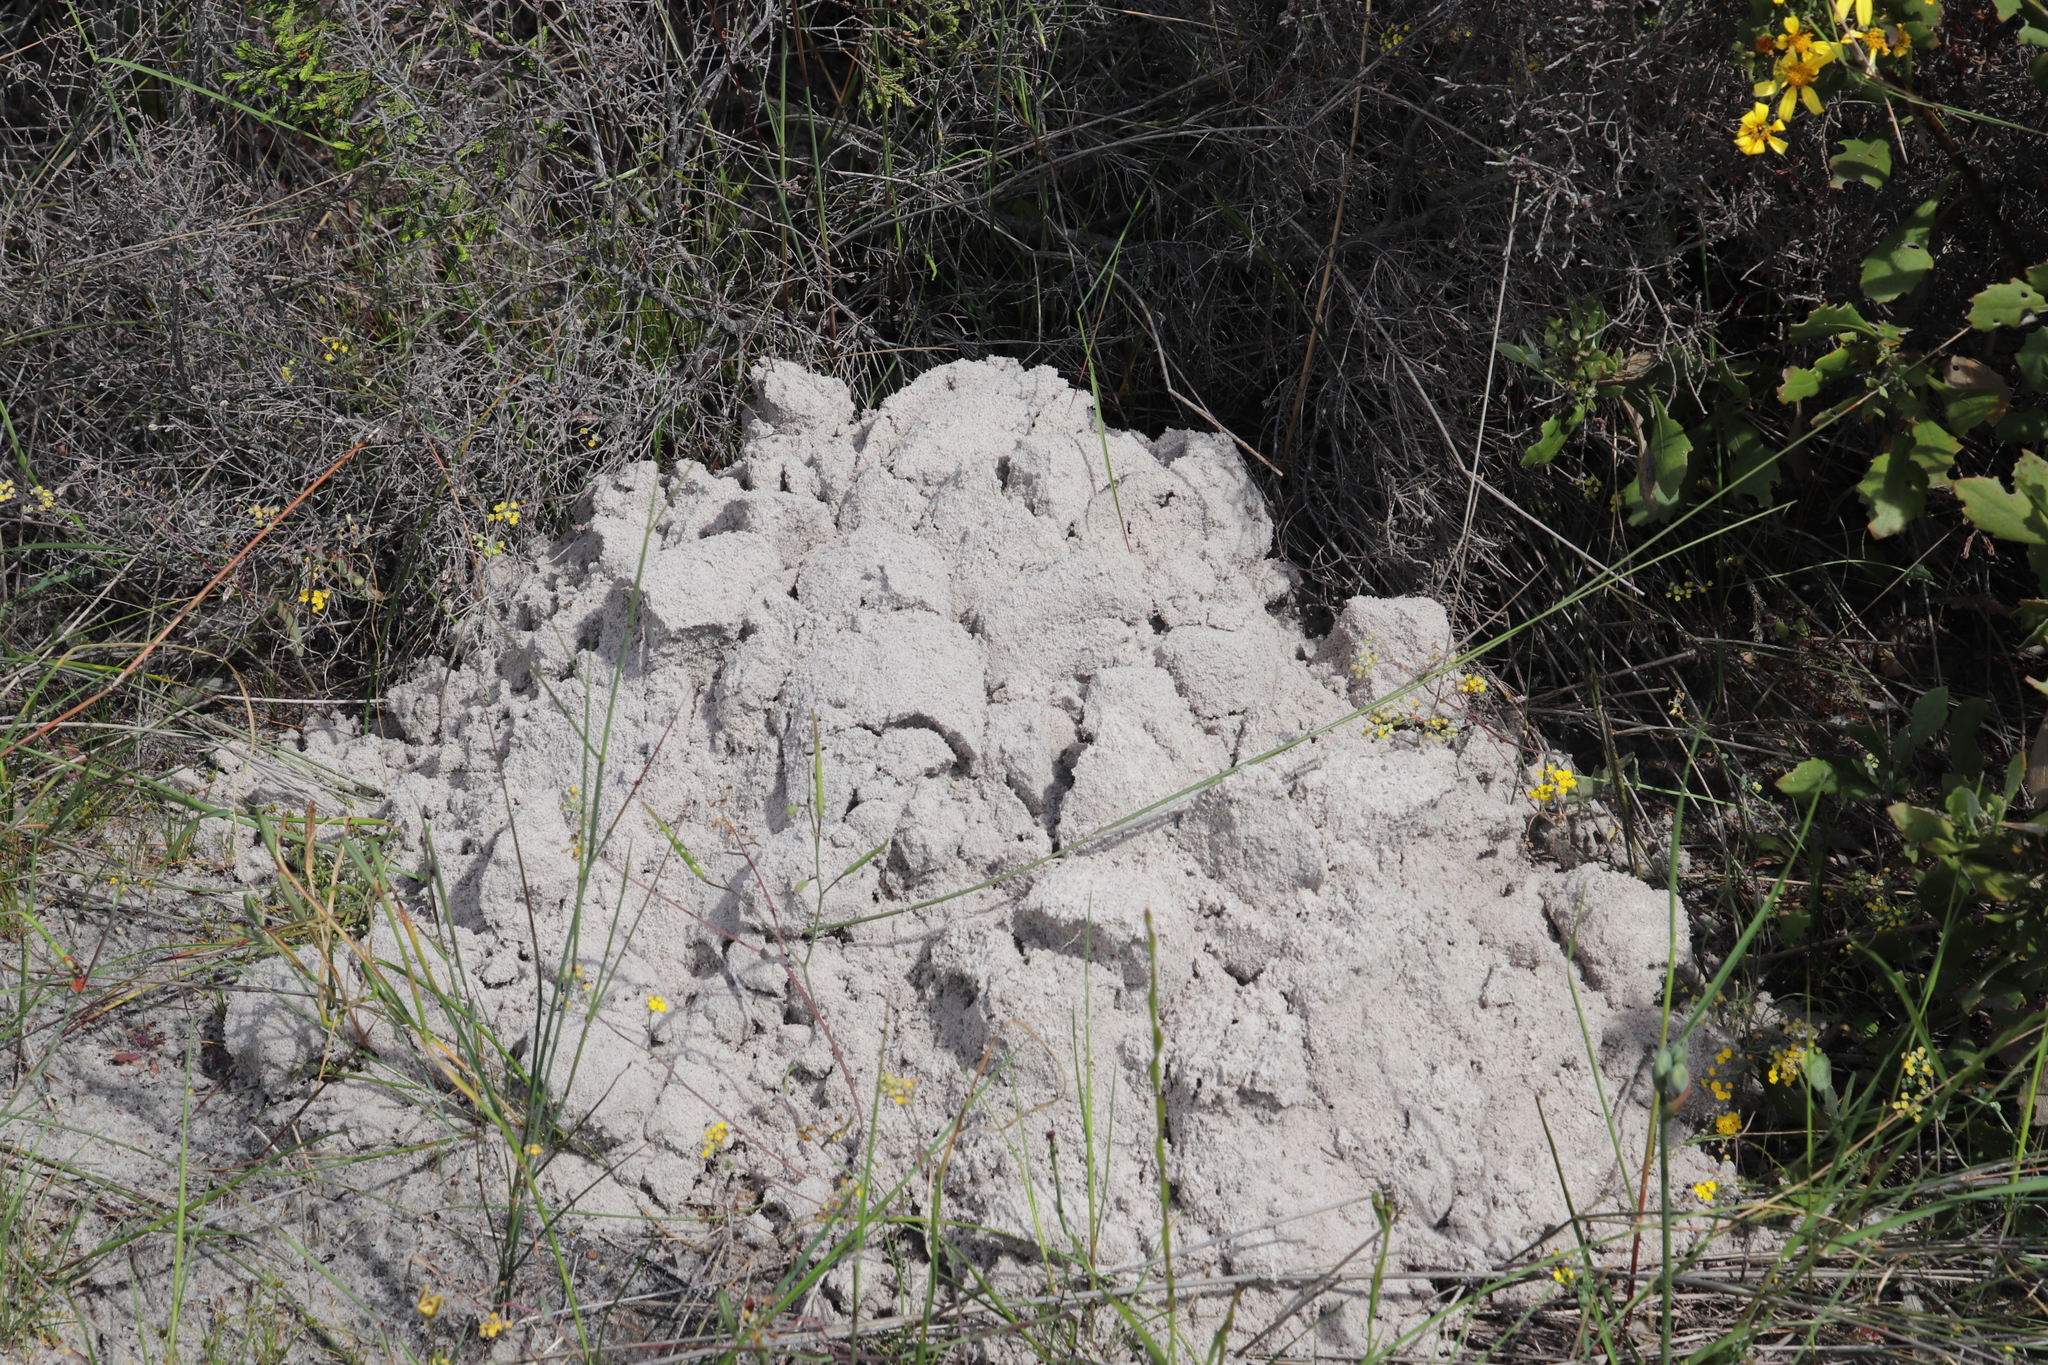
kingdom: Animalia
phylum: Chordata
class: Mammalia
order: Rodentia
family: Bathyergidae
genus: Bathyergus
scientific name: Bathyergus suillus
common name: Cape dune mole rat
